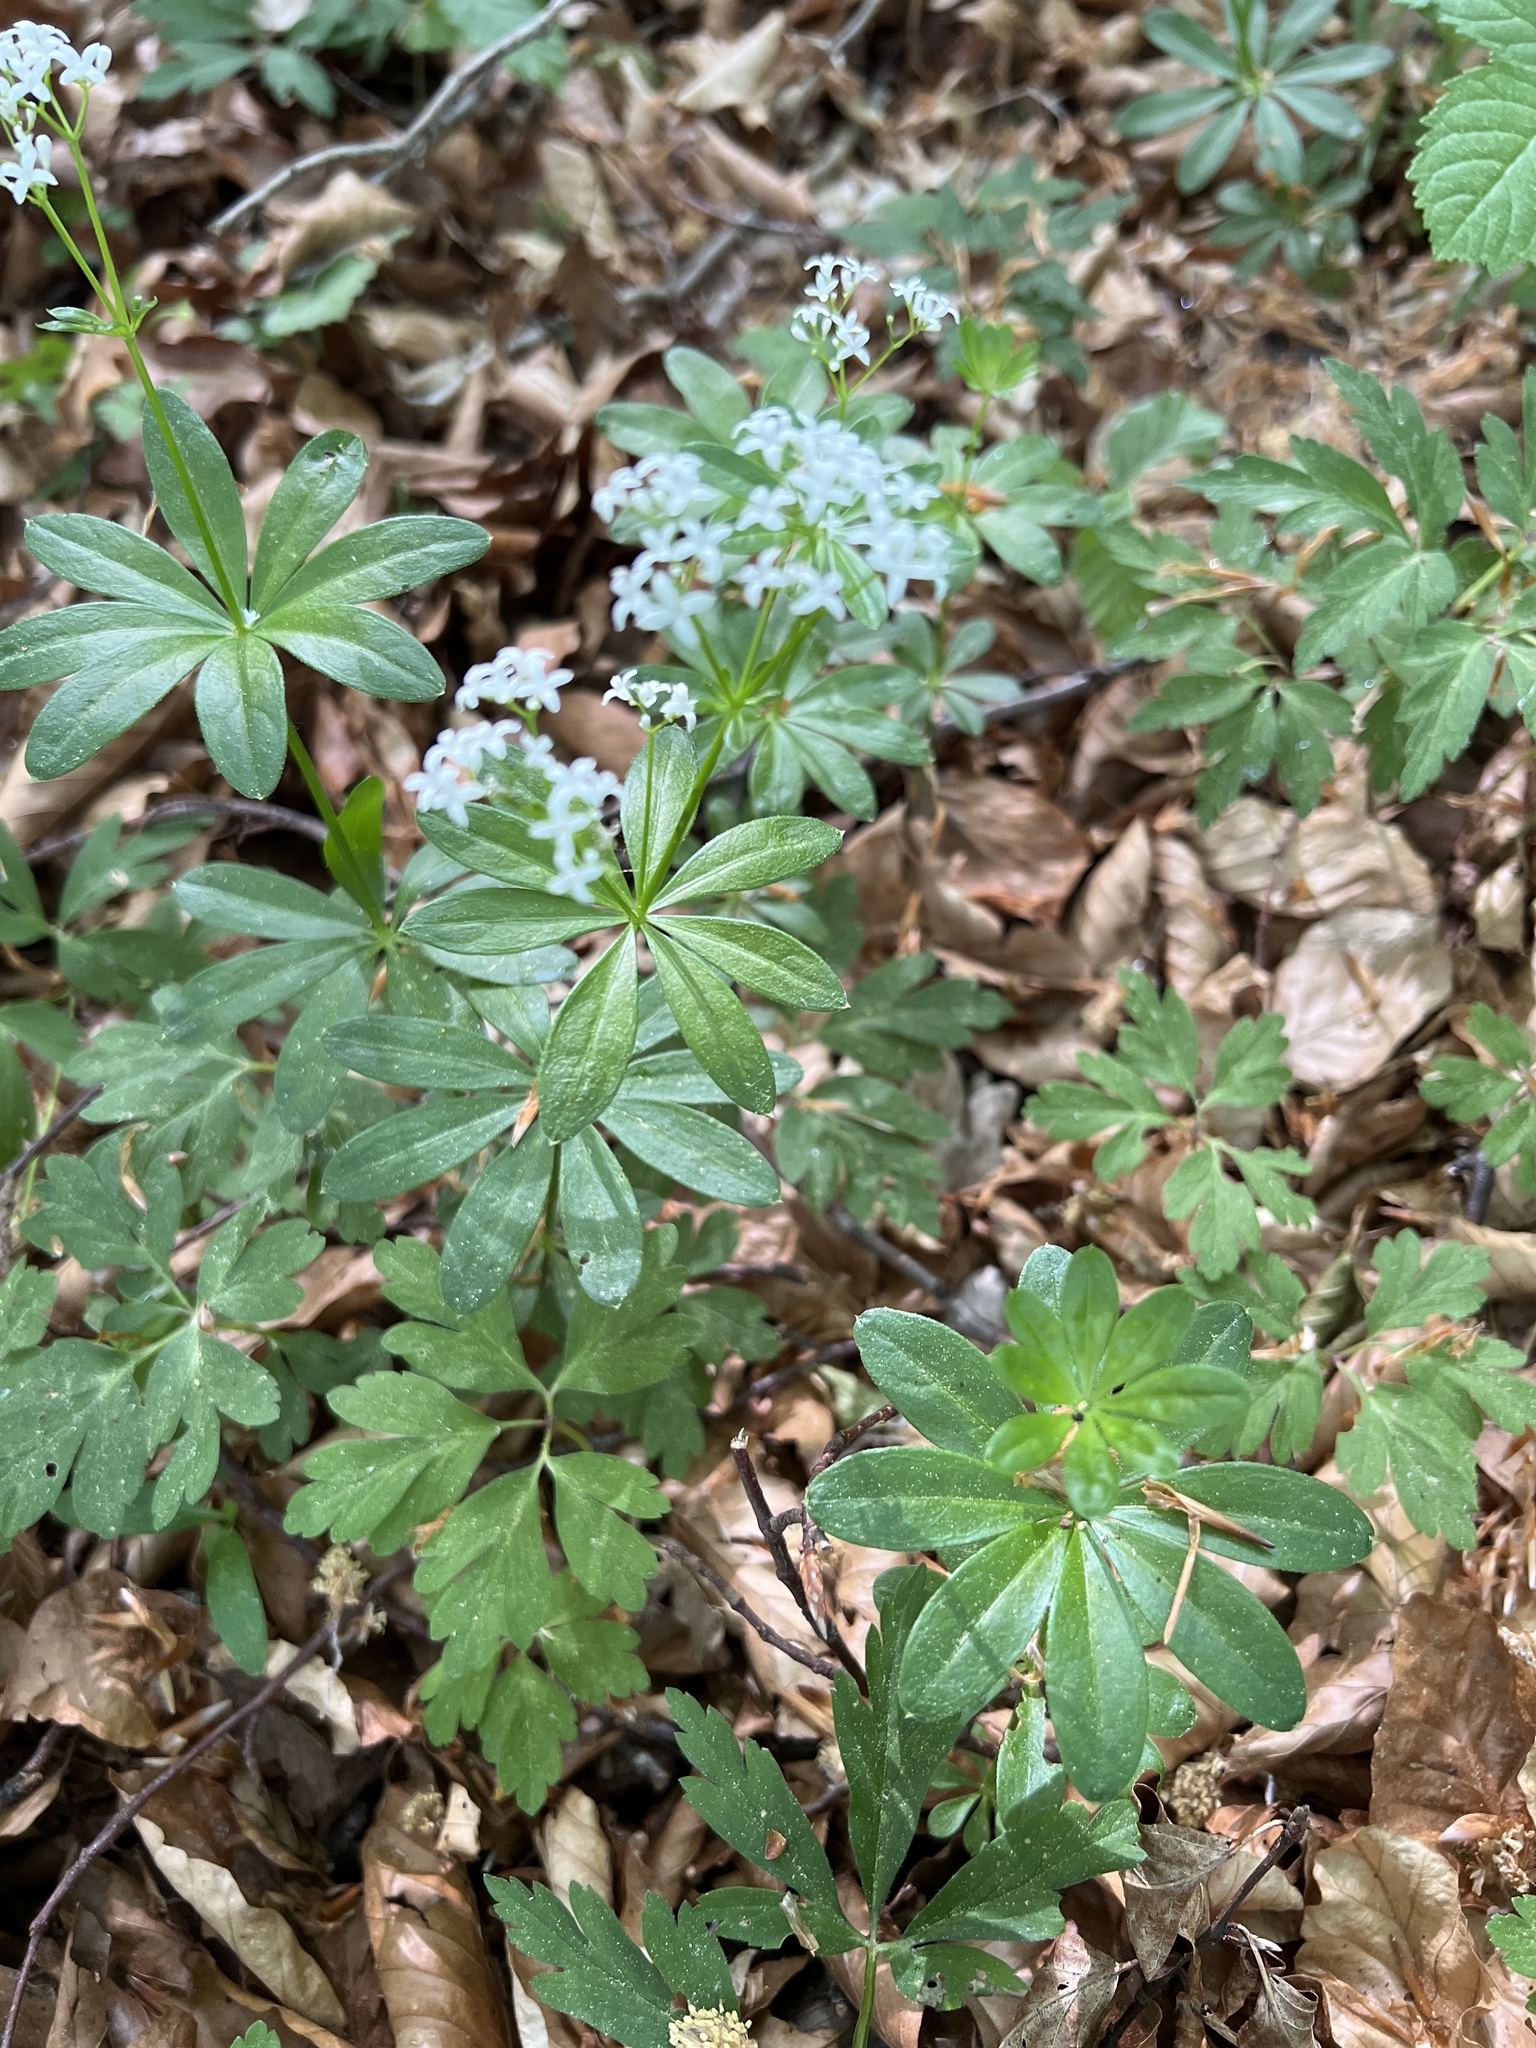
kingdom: Plantae
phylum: Tracheophyta
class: Magnoliopsida
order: Gentianales
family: Rubiaceae
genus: Galium
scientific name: Galium odoratum
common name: Sweet woodruff
